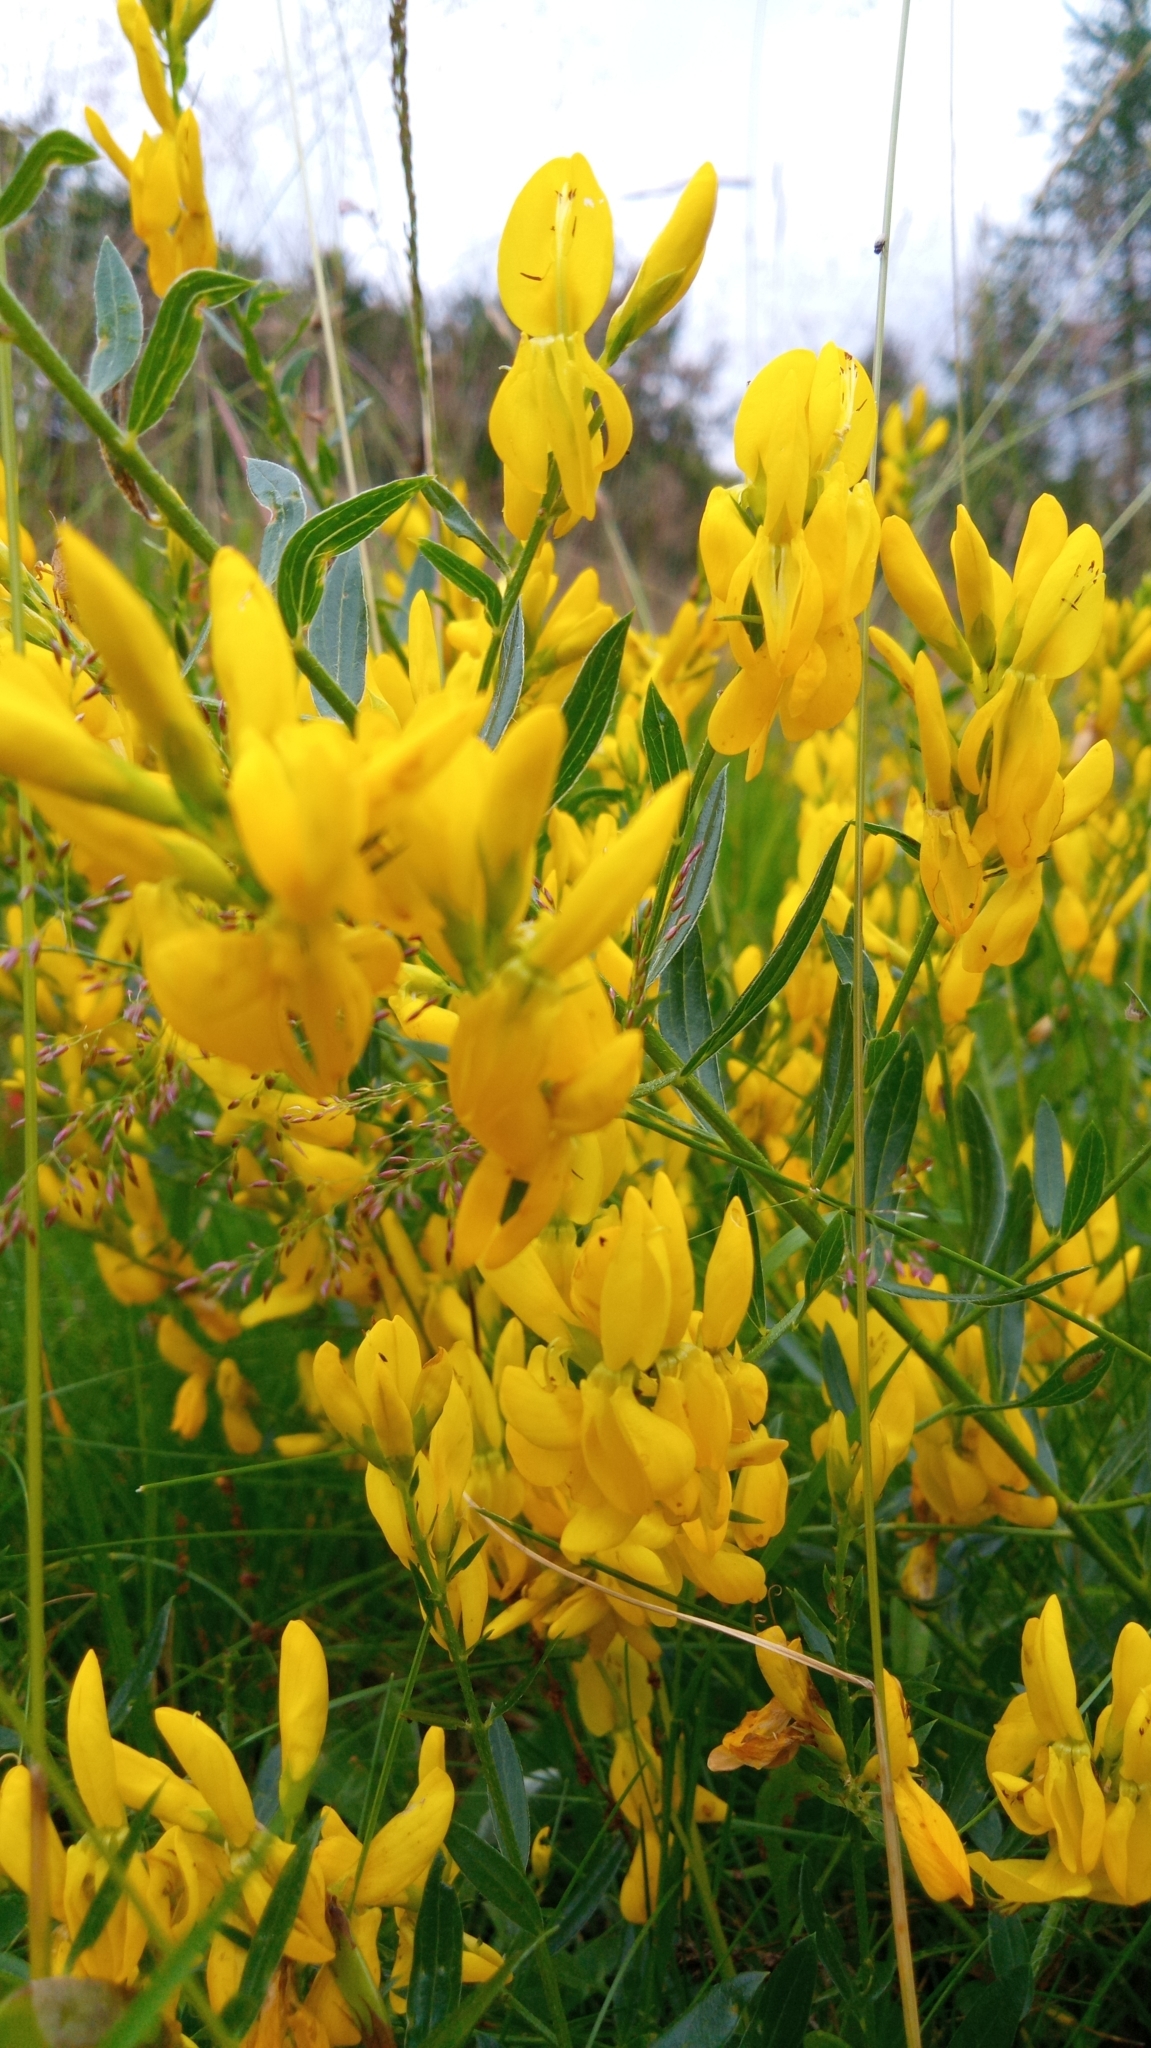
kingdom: Plantae
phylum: Tracheophyta
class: Magnoliopsida
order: Fabales
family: Fabaceae
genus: Genista
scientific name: Genista tinctoria
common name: Dyer's greenweed
